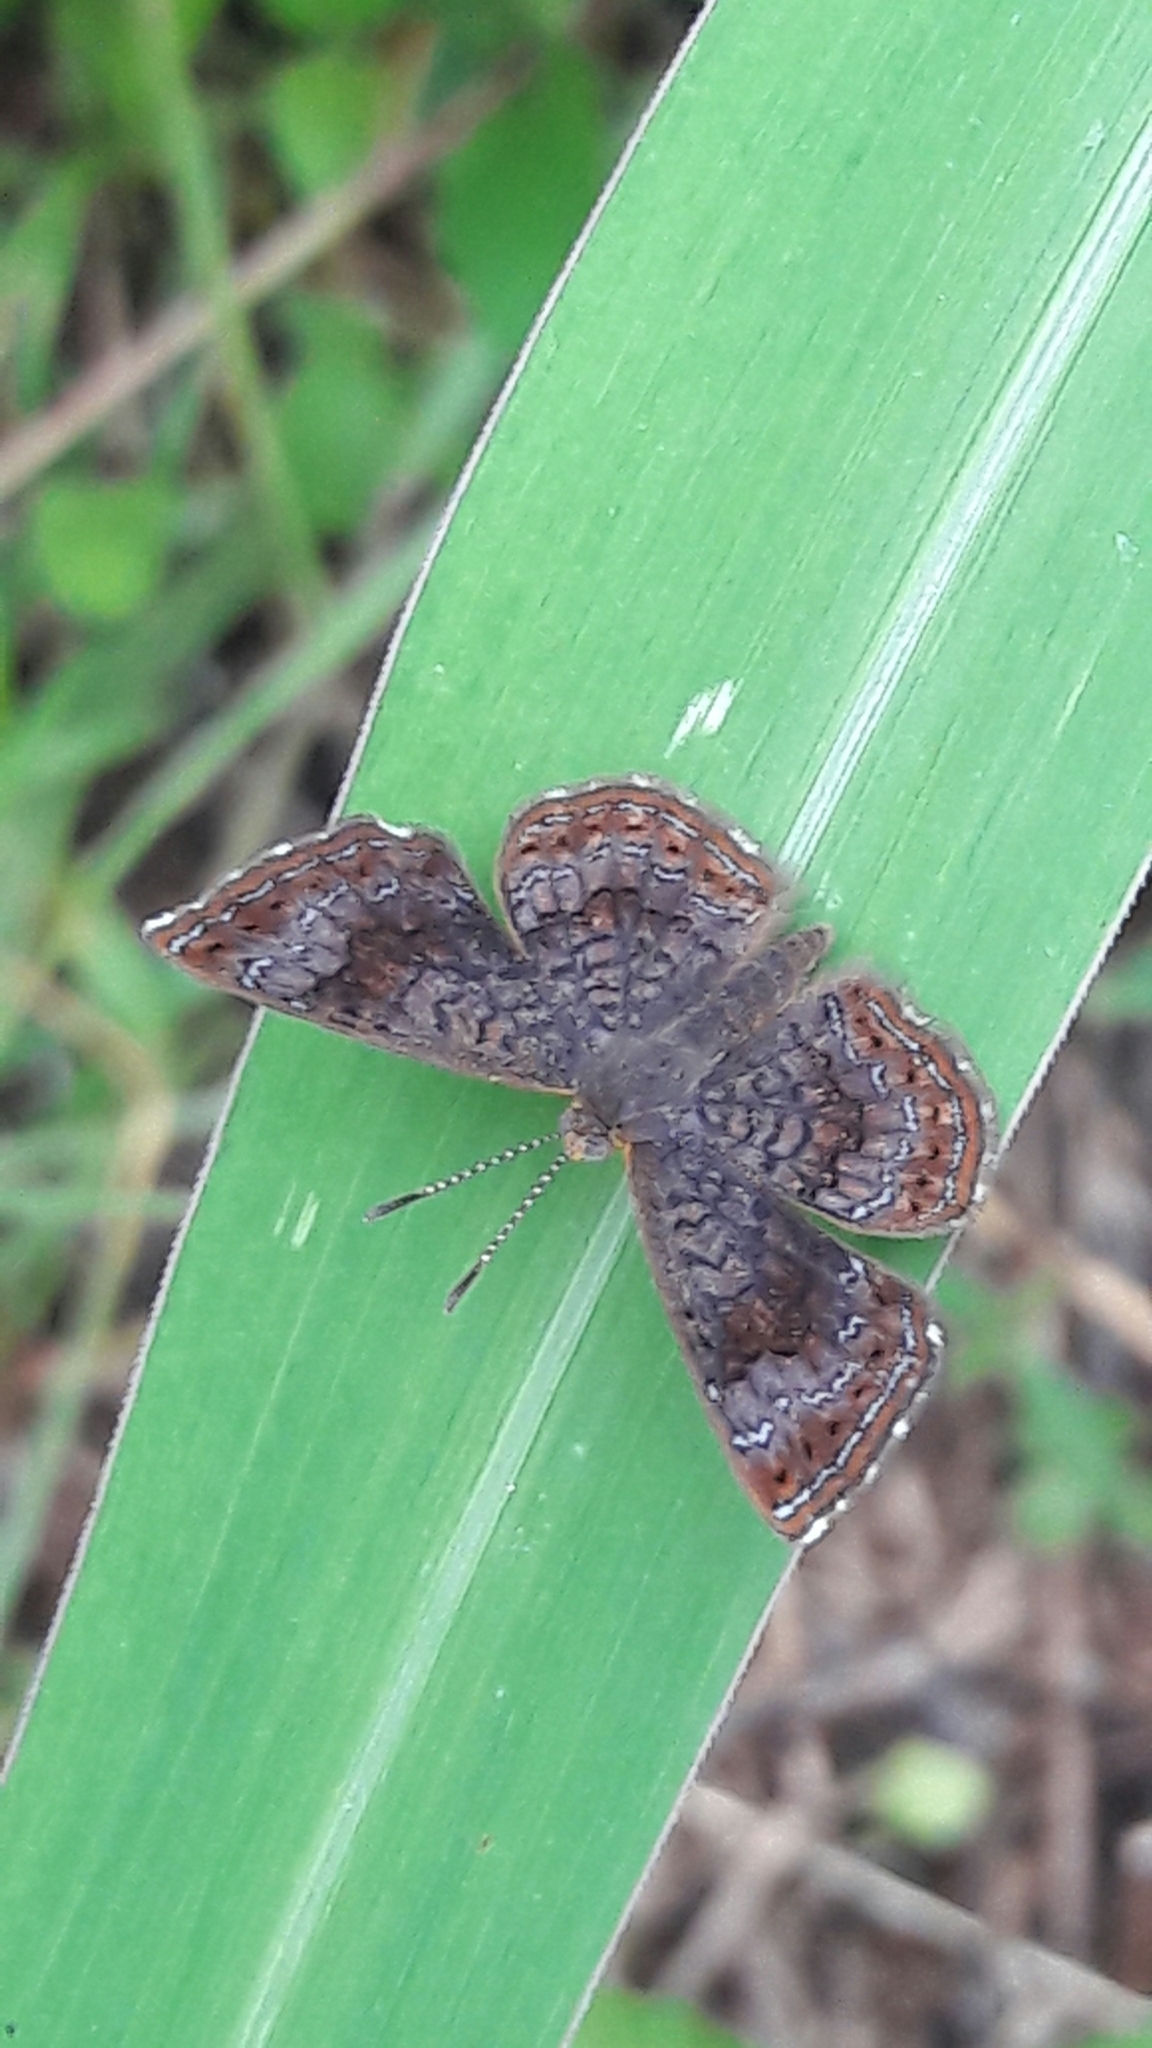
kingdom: Animalia
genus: Calephelis
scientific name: Calephelis aymaran
